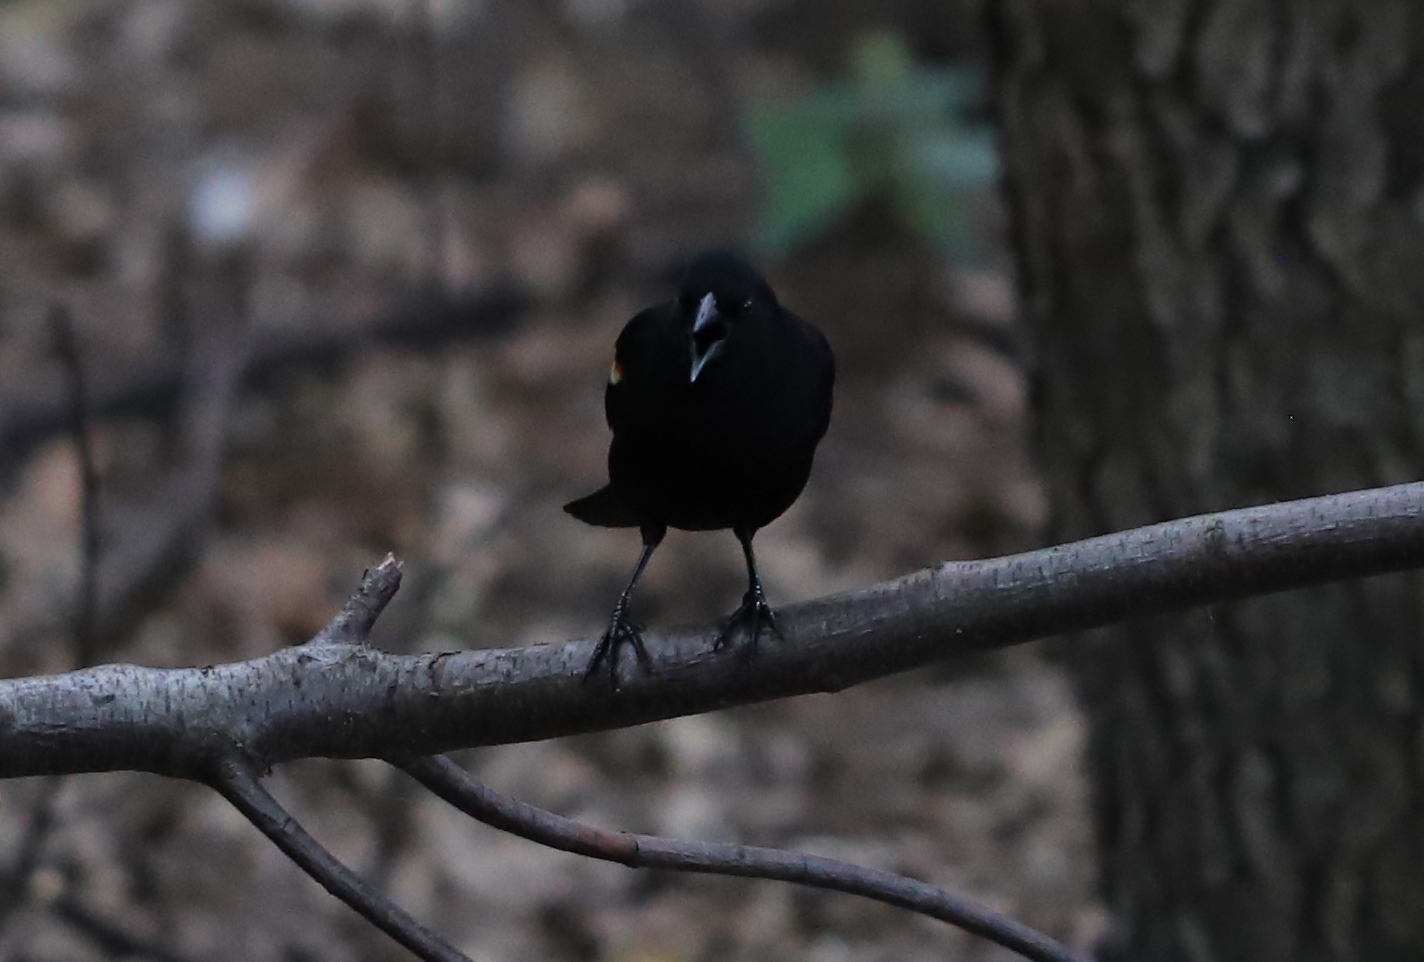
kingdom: Animalia
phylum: Chordata
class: Aves
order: Passeriformes
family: Icteridae
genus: Agelaius
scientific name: Agelaius phoeniceus
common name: Red-winged blackbird
